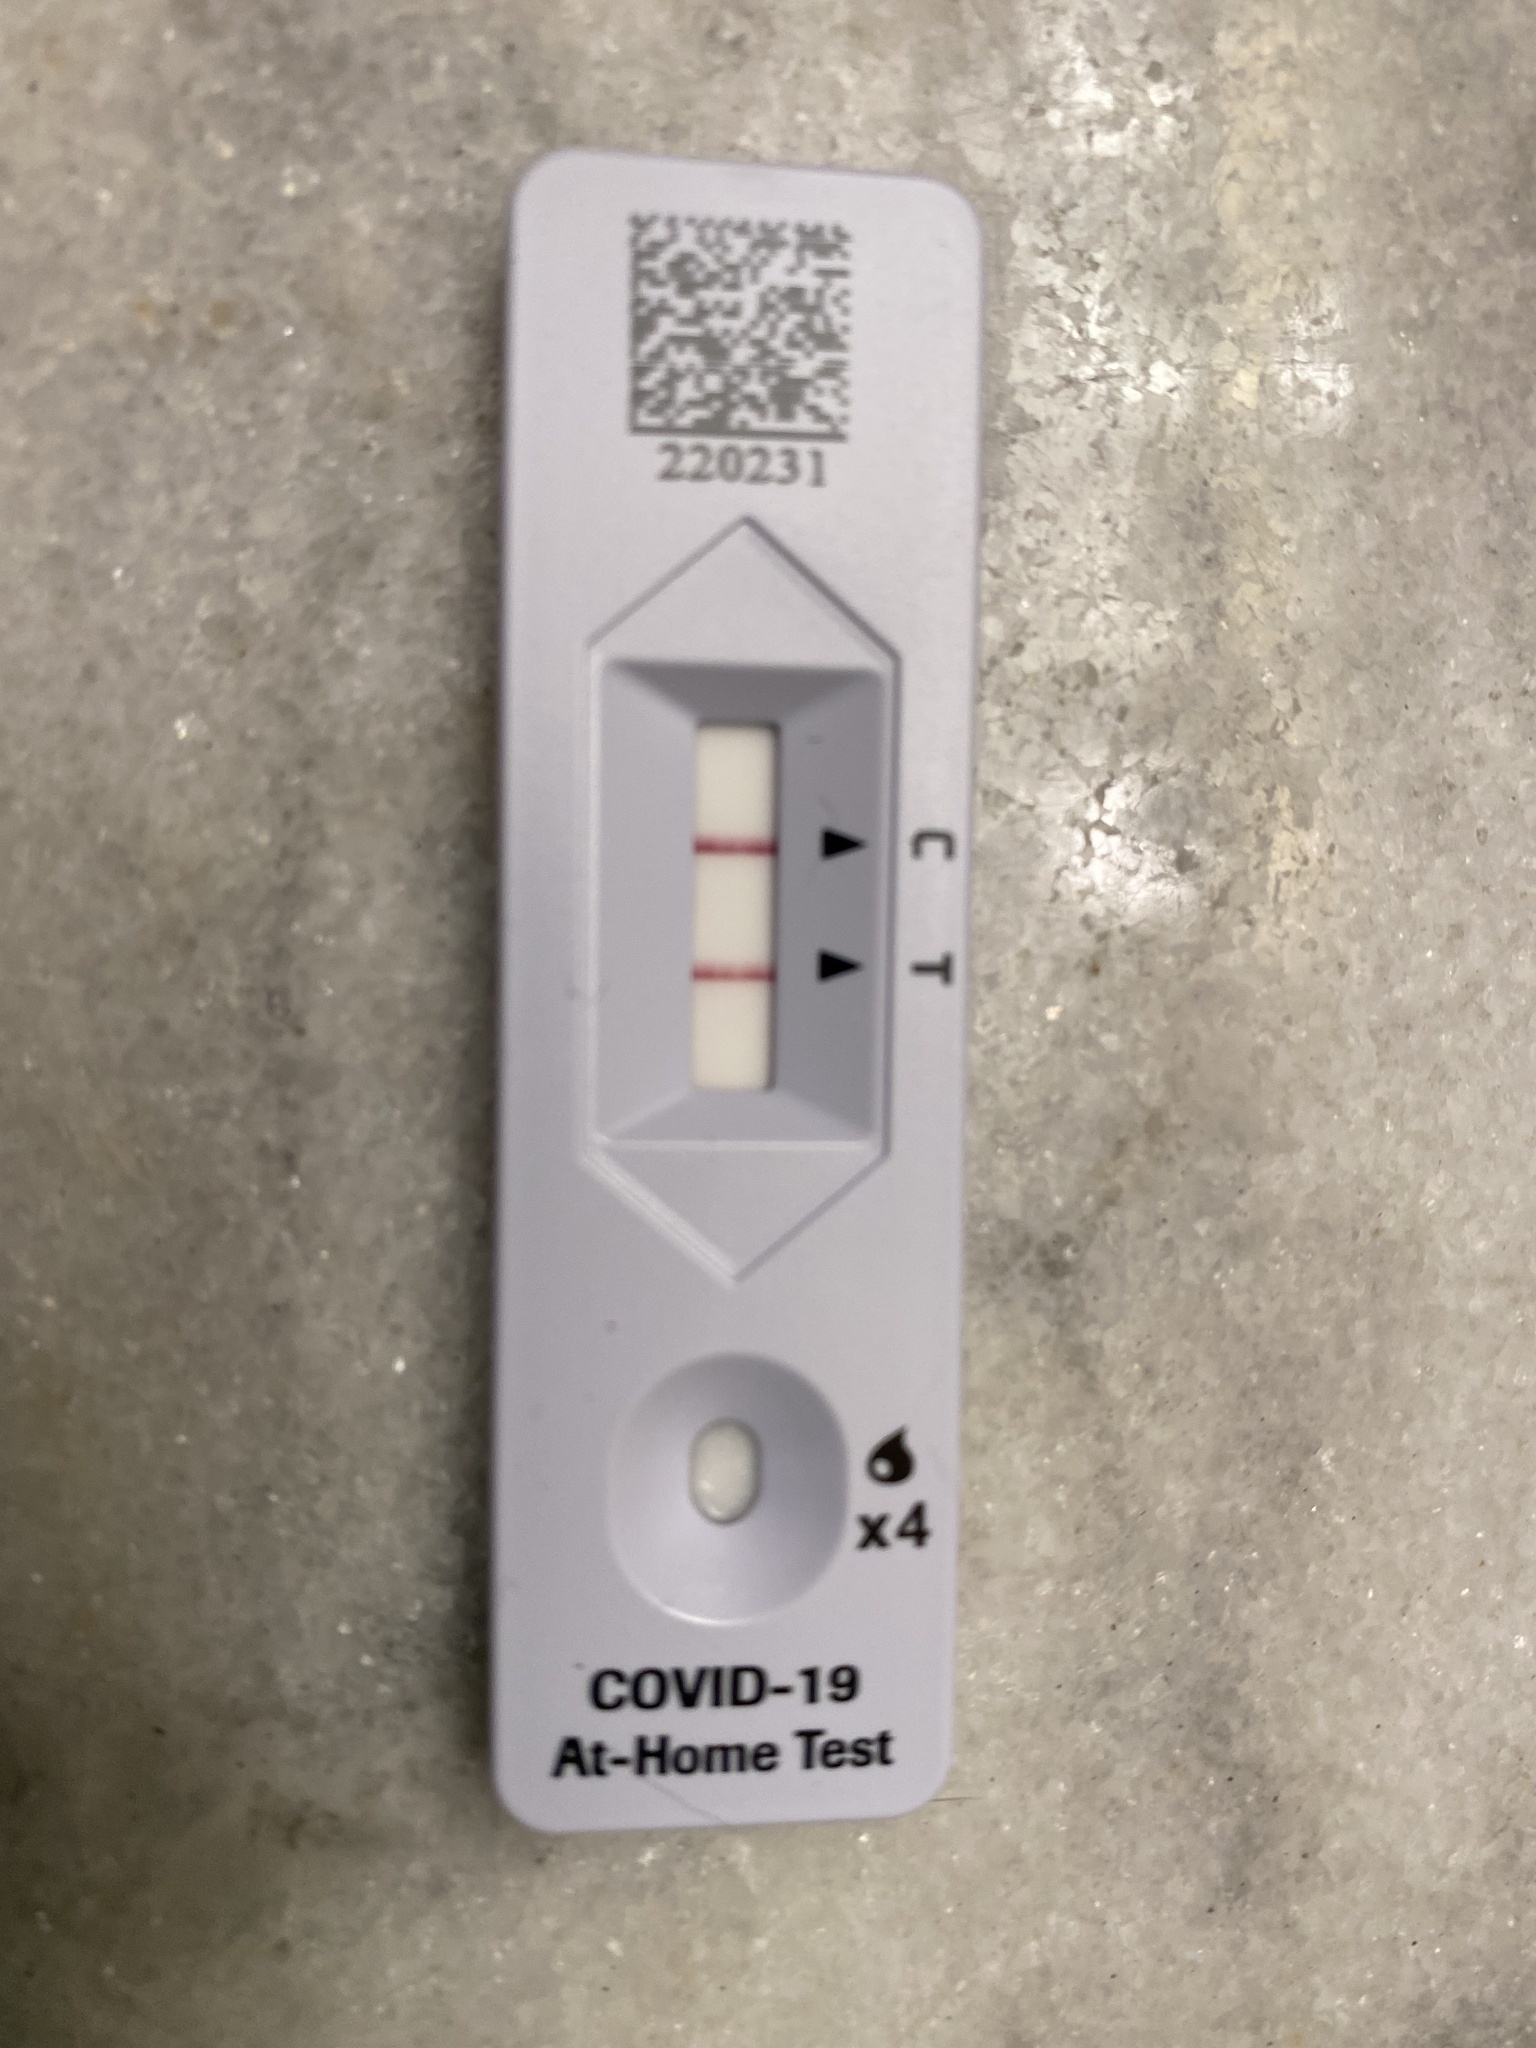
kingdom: Viruses
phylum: Pisuviricota
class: Pisoniviricetes
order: Nidovirales
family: Coronaviridae
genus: Betacoronavirus
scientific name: Betacoronavirus
